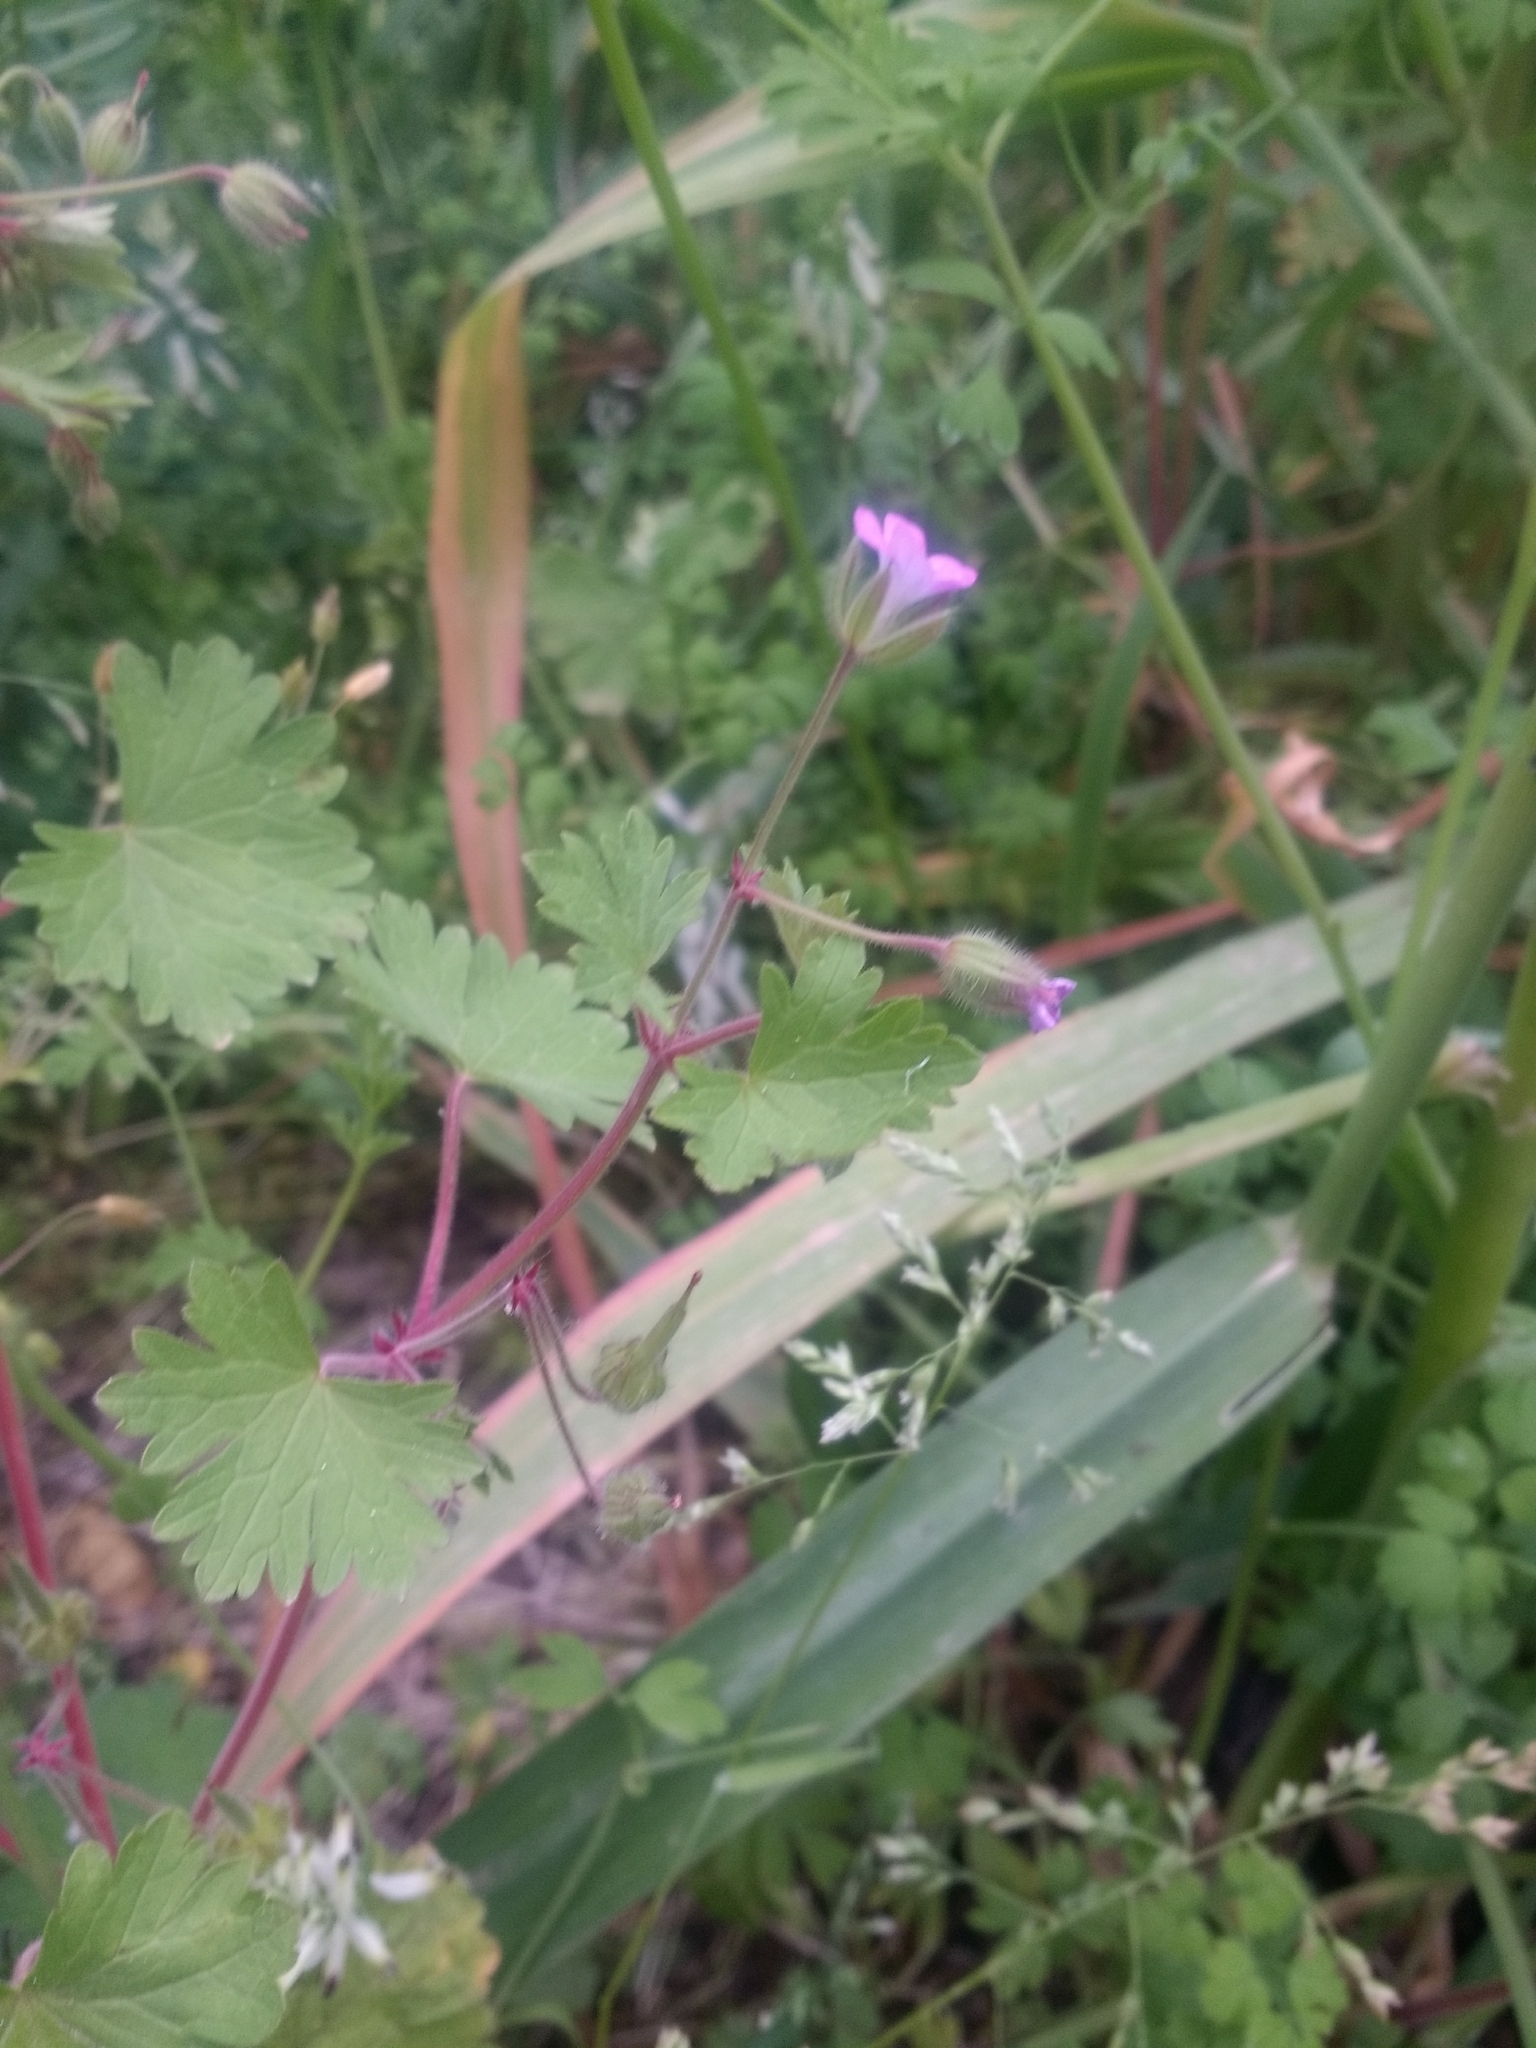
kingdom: Plantae
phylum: Tracheophyta
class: Magnoliopsida
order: Geraniales
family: Geraniaceae
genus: Geranium
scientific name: Geranium rotundifolium
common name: Round-leaved crane's-bill
